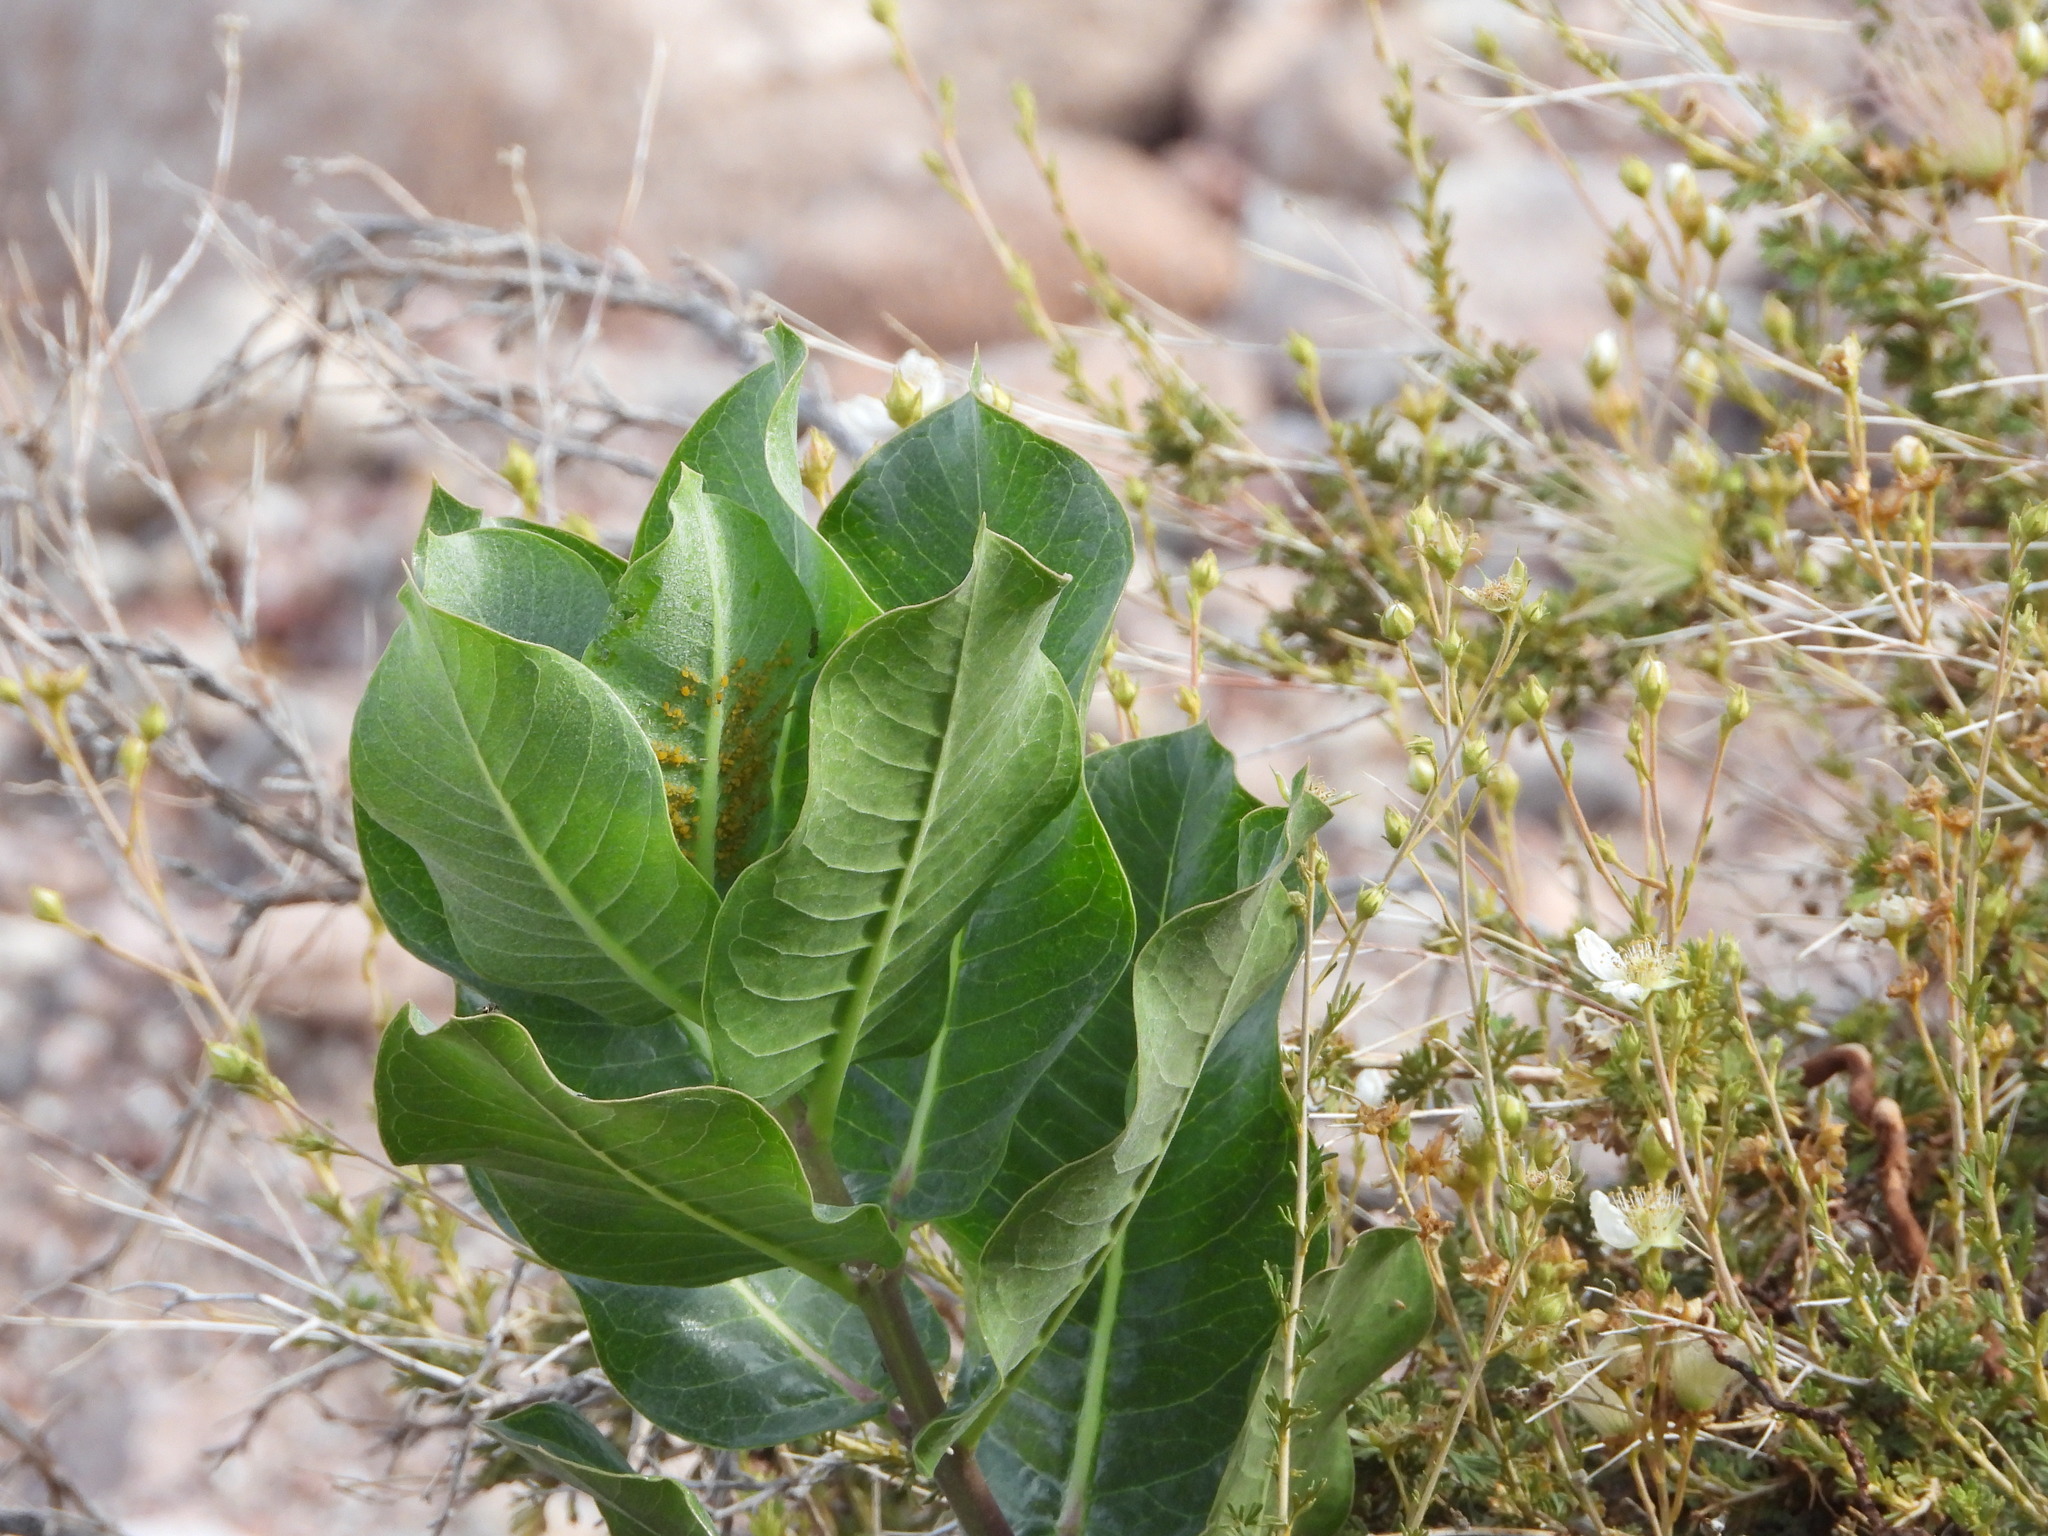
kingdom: Plantae
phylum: Tracheophyta
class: Magnoliopsida
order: Gentianales
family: Apocynaceae
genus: Asclepias
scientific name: Asclepias speciosa
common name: Showy milkweed
